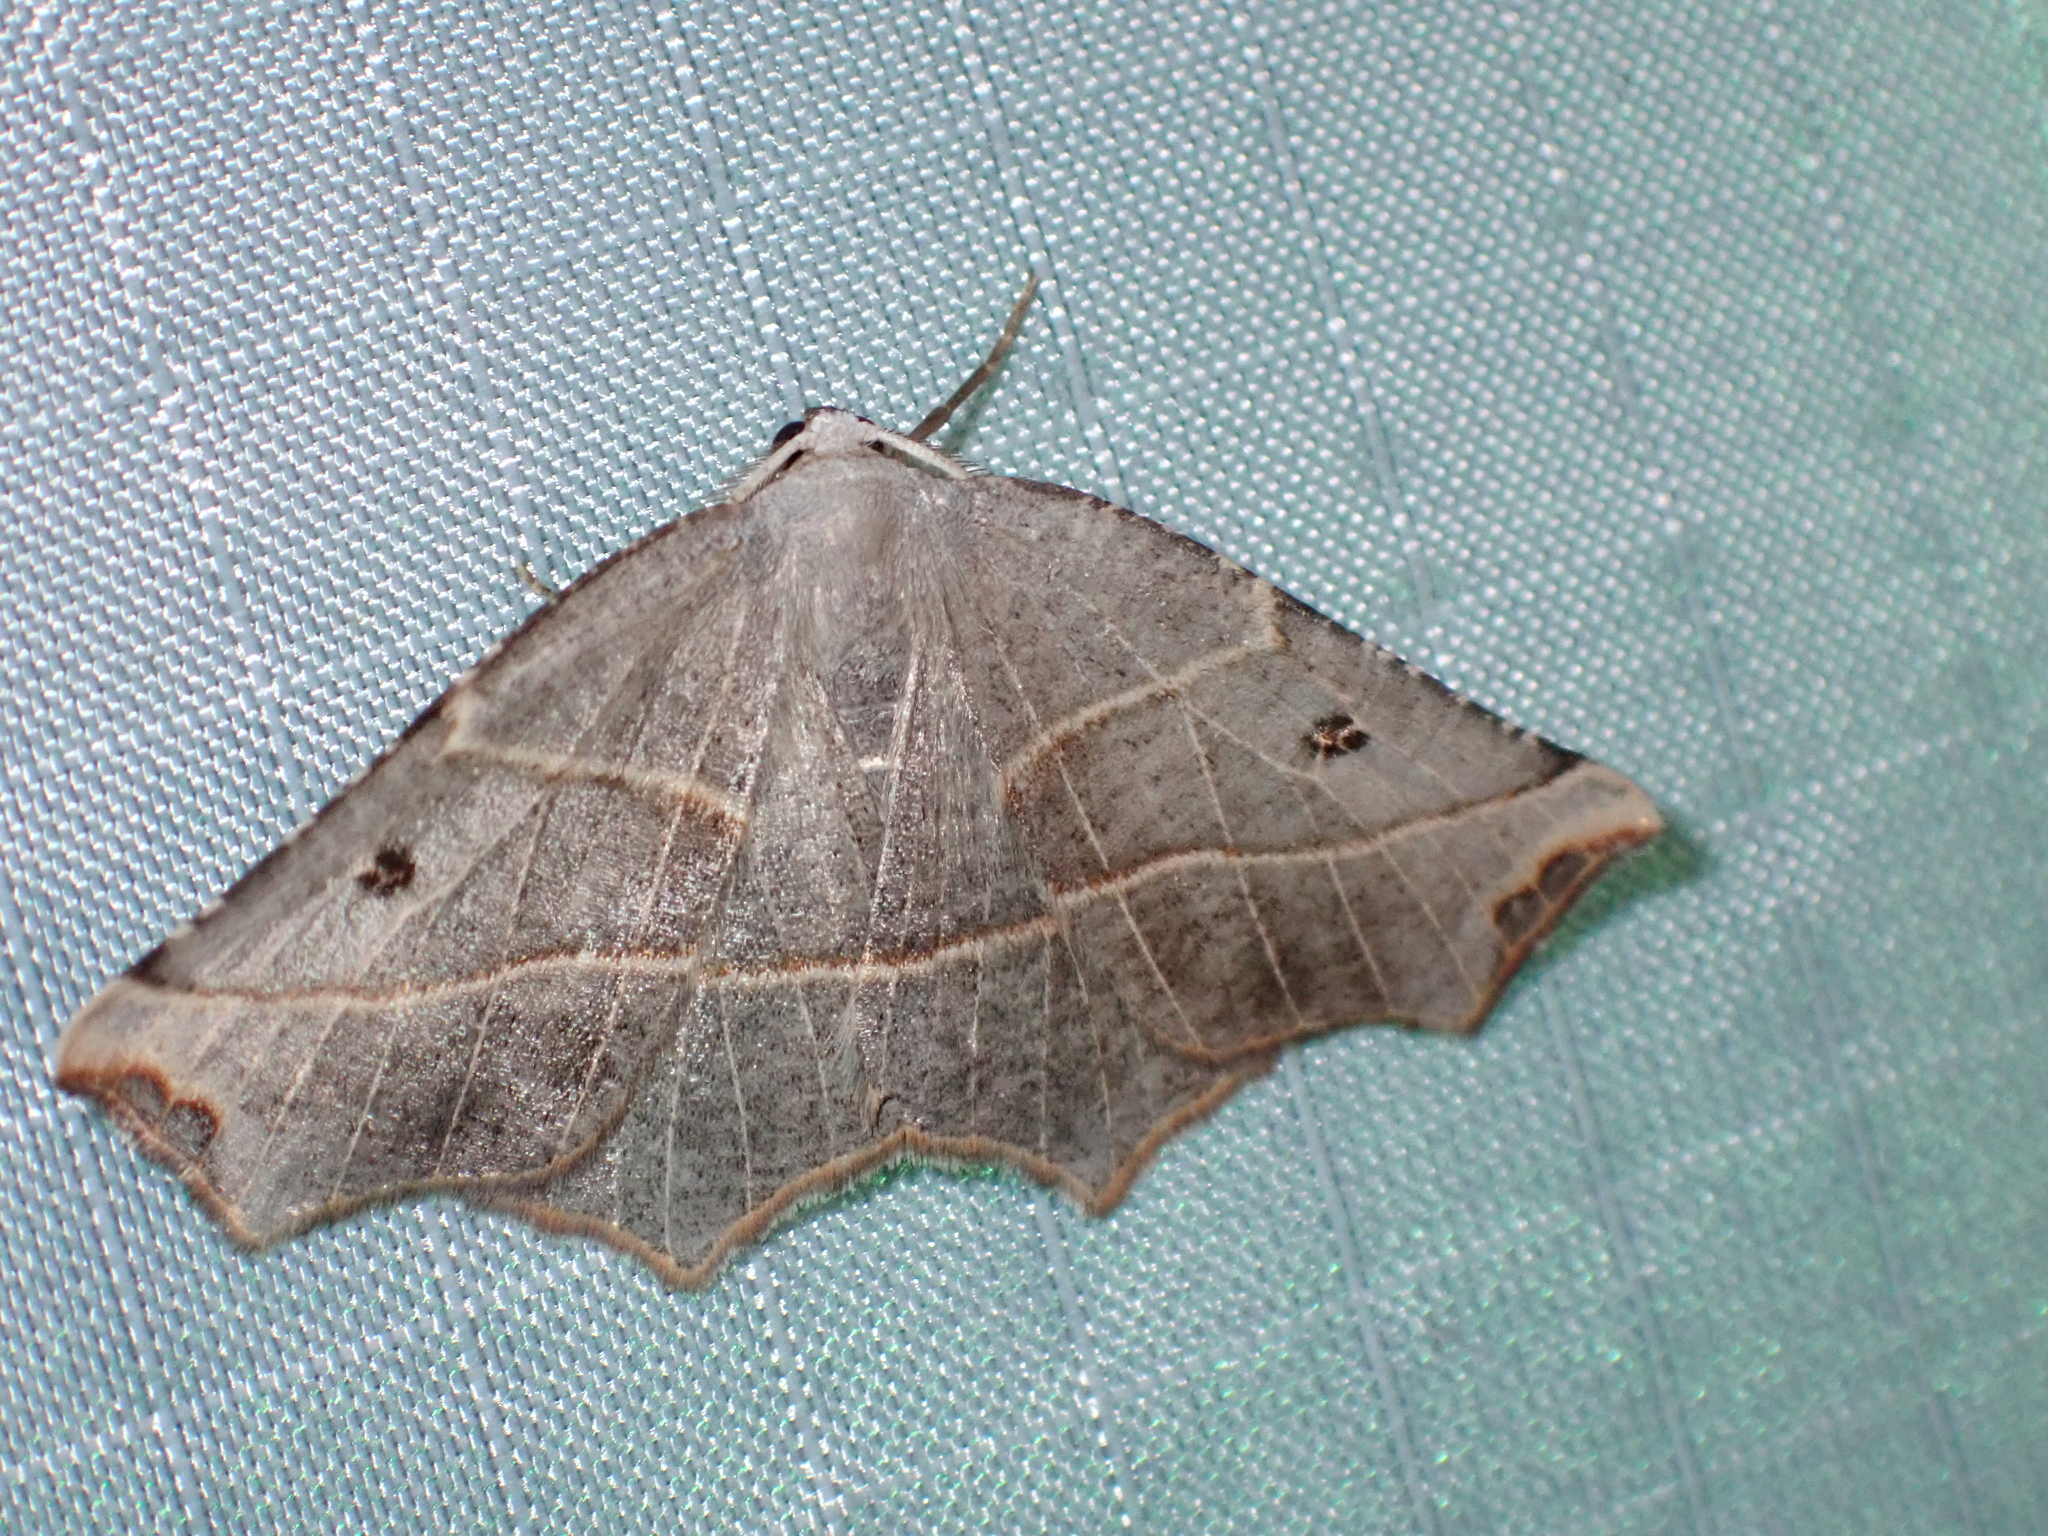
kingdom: Animalia
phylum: Arthropoda
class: Insecta
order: Lepidoptera
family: Geometridae
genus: Metanema
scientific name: Metanema inatomaria
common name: Pale metanema
